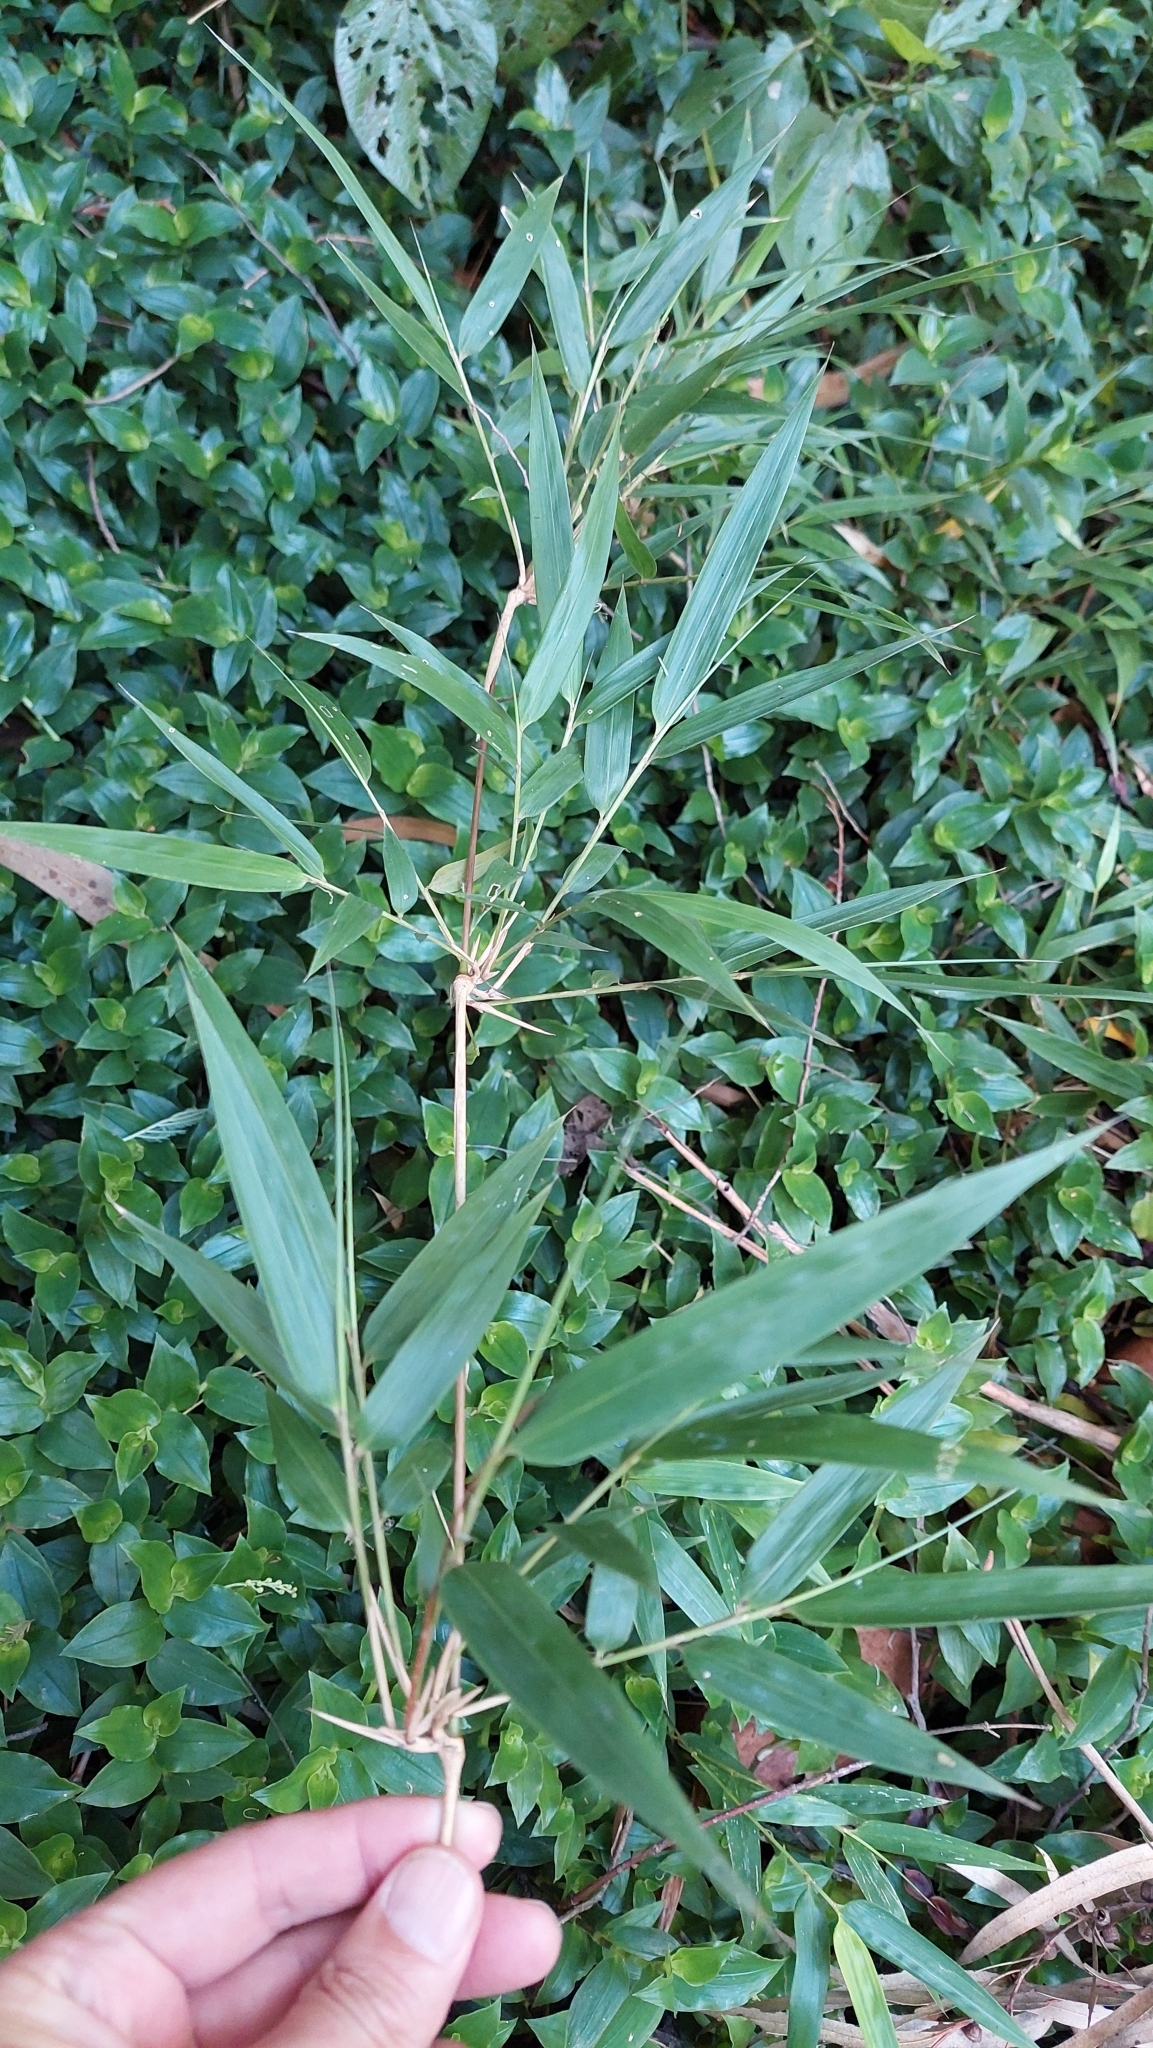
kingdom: Plantae
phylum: Tracheophyta
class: Liliopsida
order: Poales
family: Poaceae
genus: Chusquea
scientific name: Chusquea scandens
